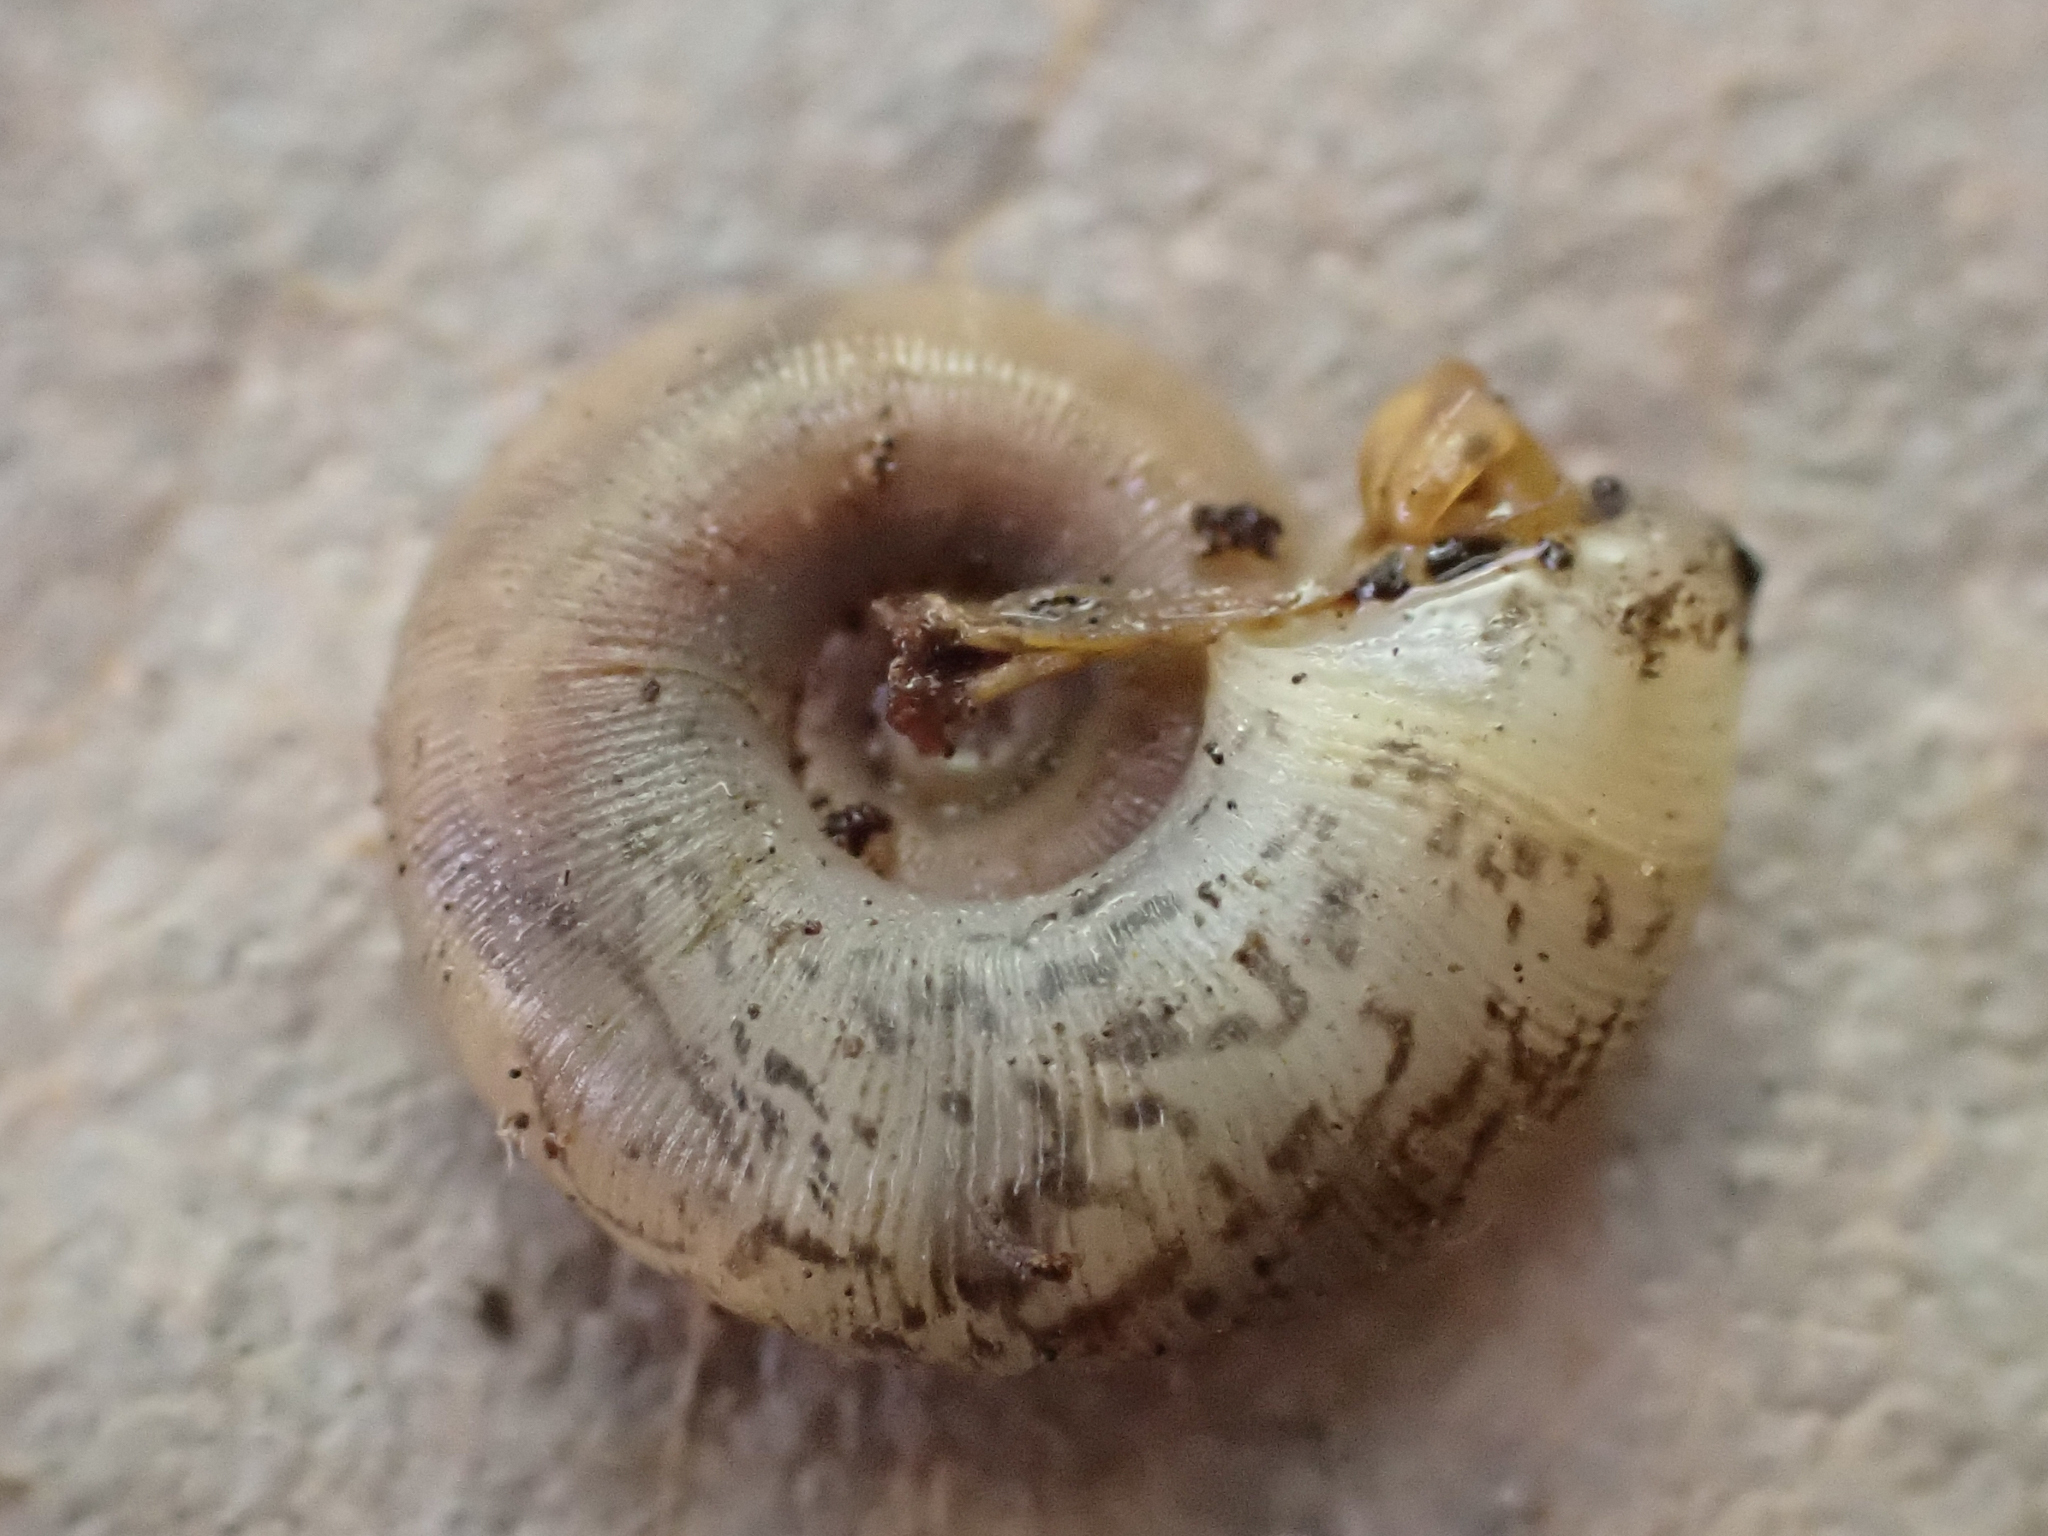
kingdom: Animalia
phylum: Mollusca
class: Gastropoda
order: Stylommatophora
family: Haplotrematidae
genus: Haplotrema
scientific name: Haplotrema alameda
